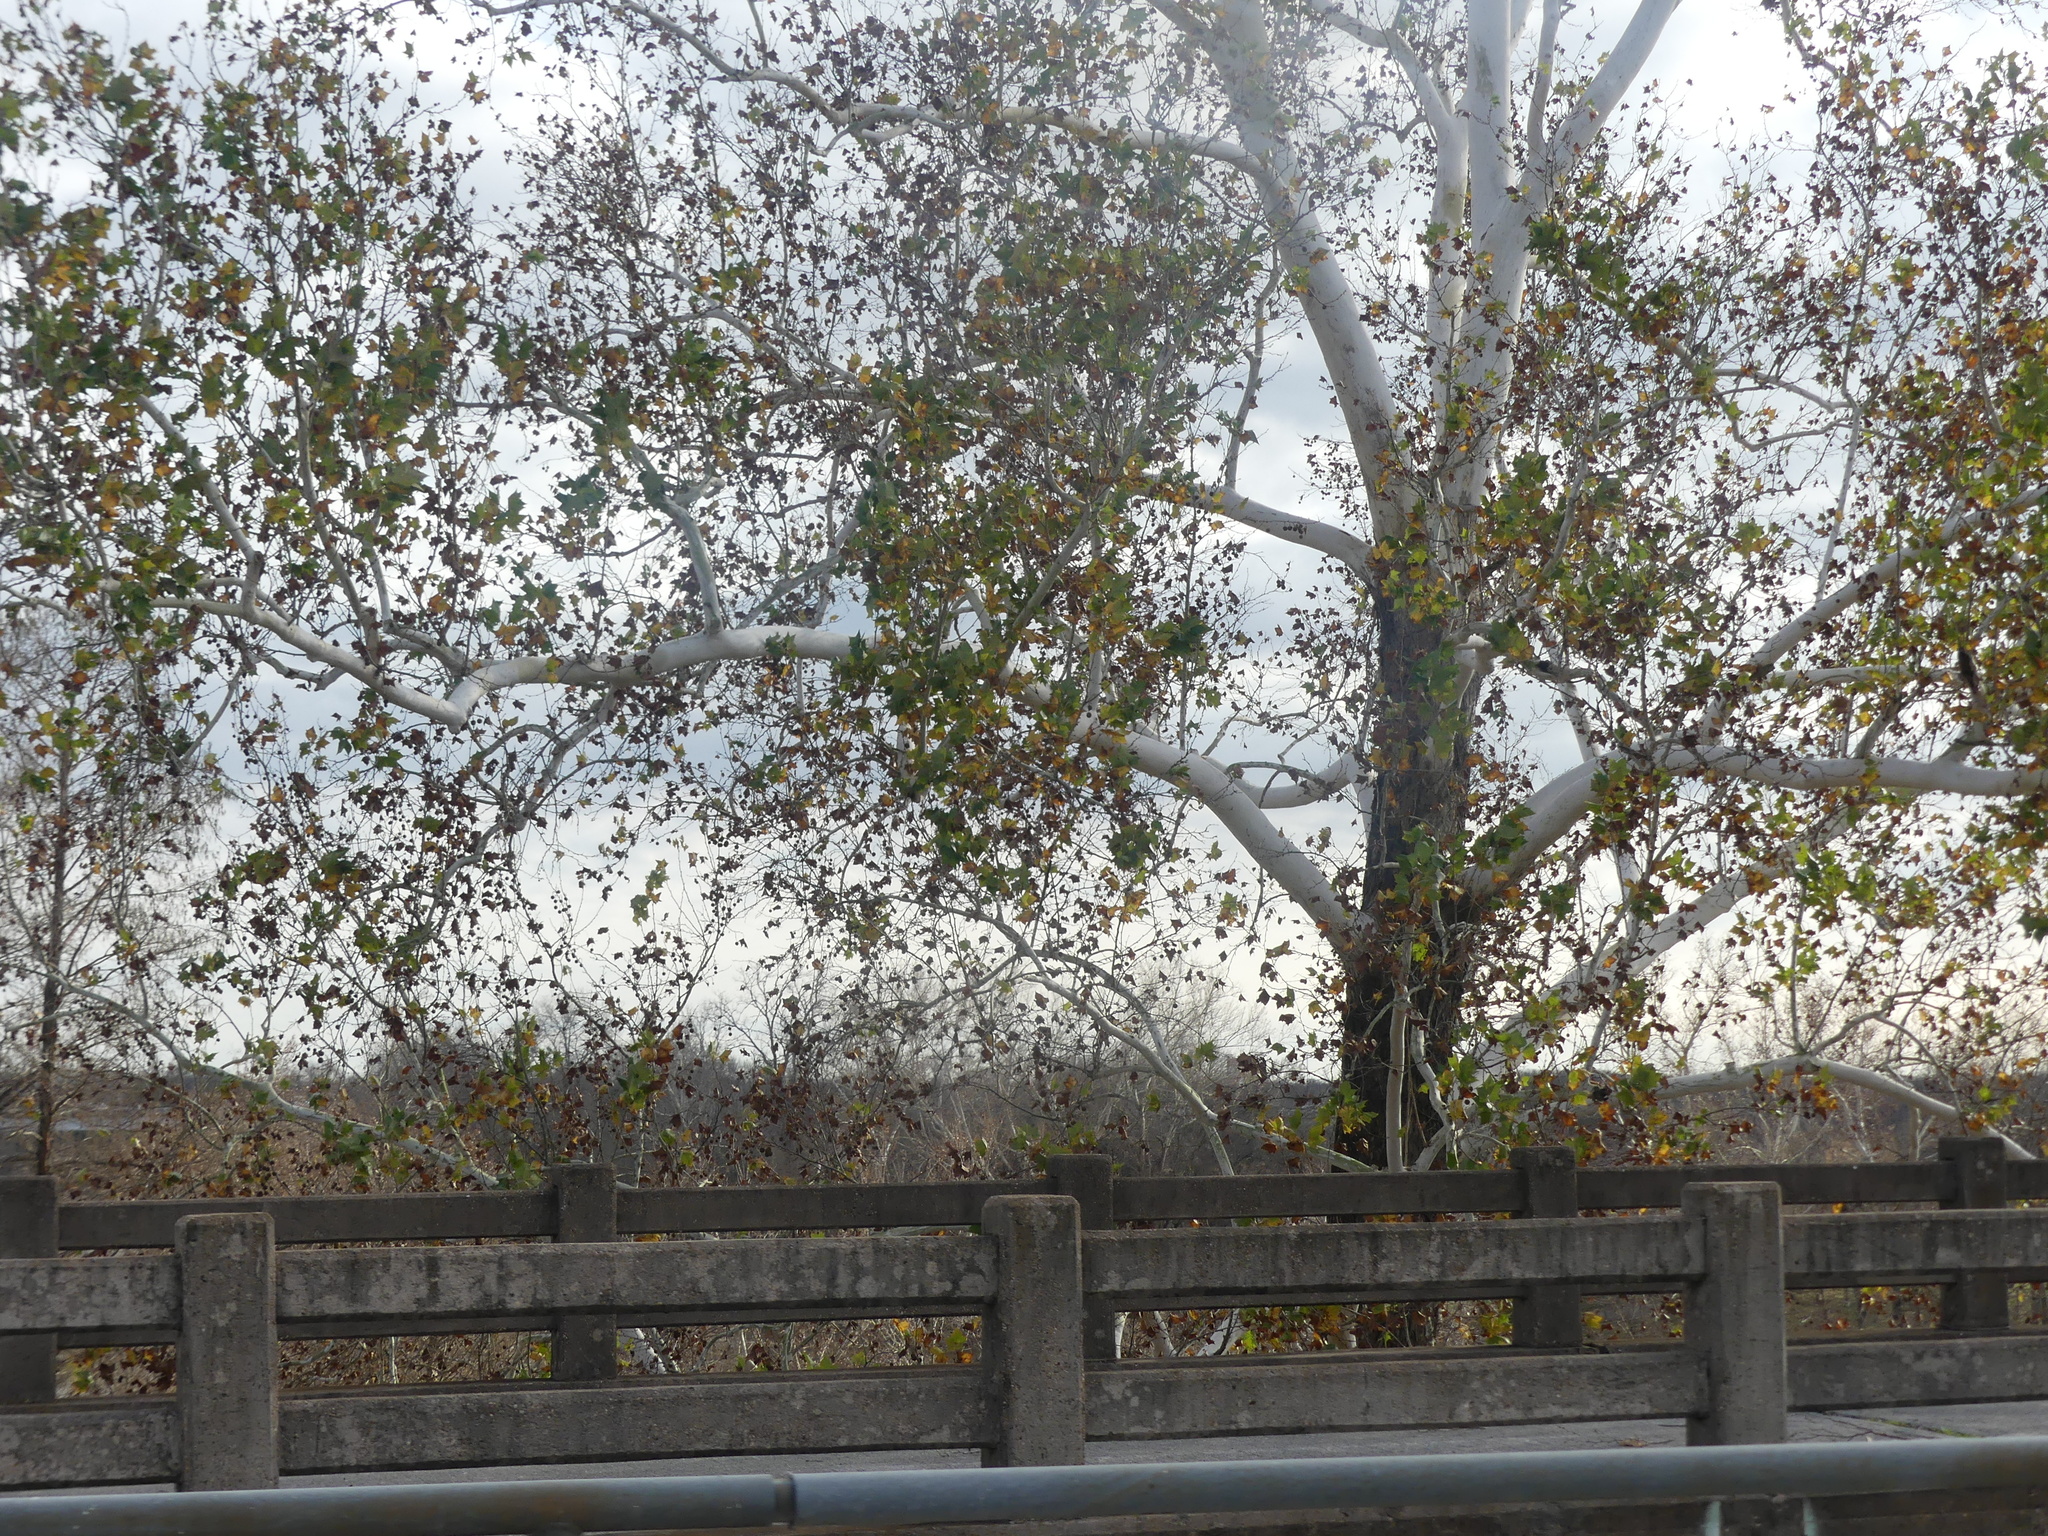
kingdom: Plantae
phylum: Tracheophyta
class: Magnoliopsida
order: Proteales
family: Platanaceae
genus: Platanus
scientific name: Platanus occidentalis
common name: American sycamore
